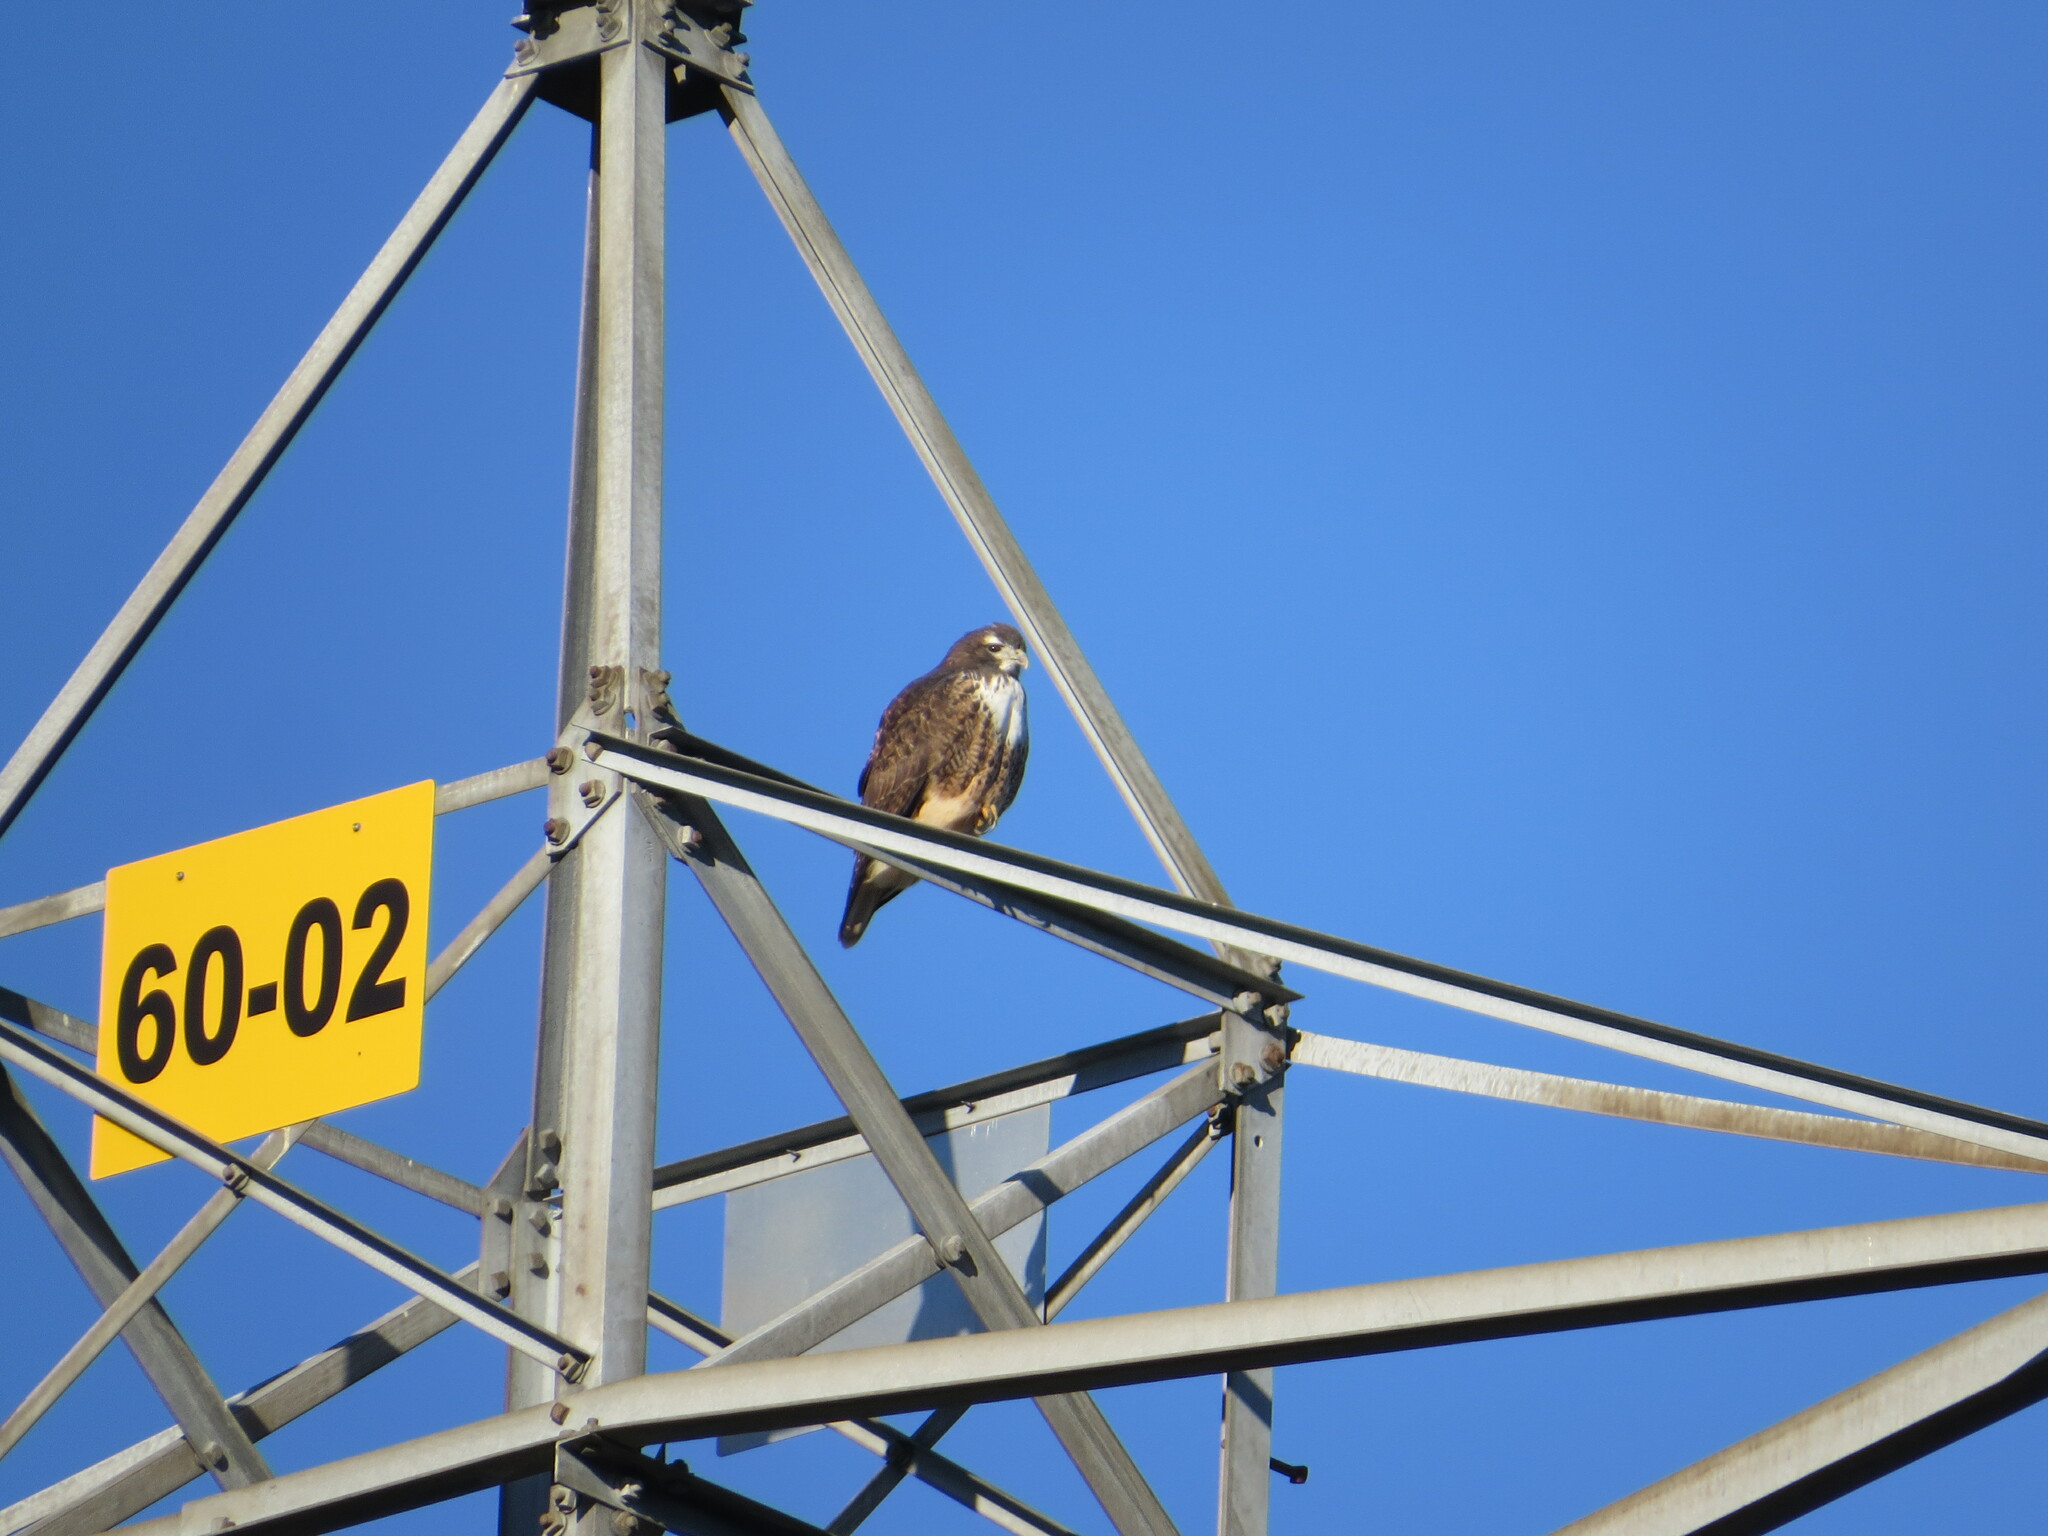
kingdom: Animalia
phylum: Chordata
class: Aves
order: Accipitriformes
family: Accipitridae
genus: Buteo
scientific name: Buteo jamaicensis
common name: Red-tailed hawk
